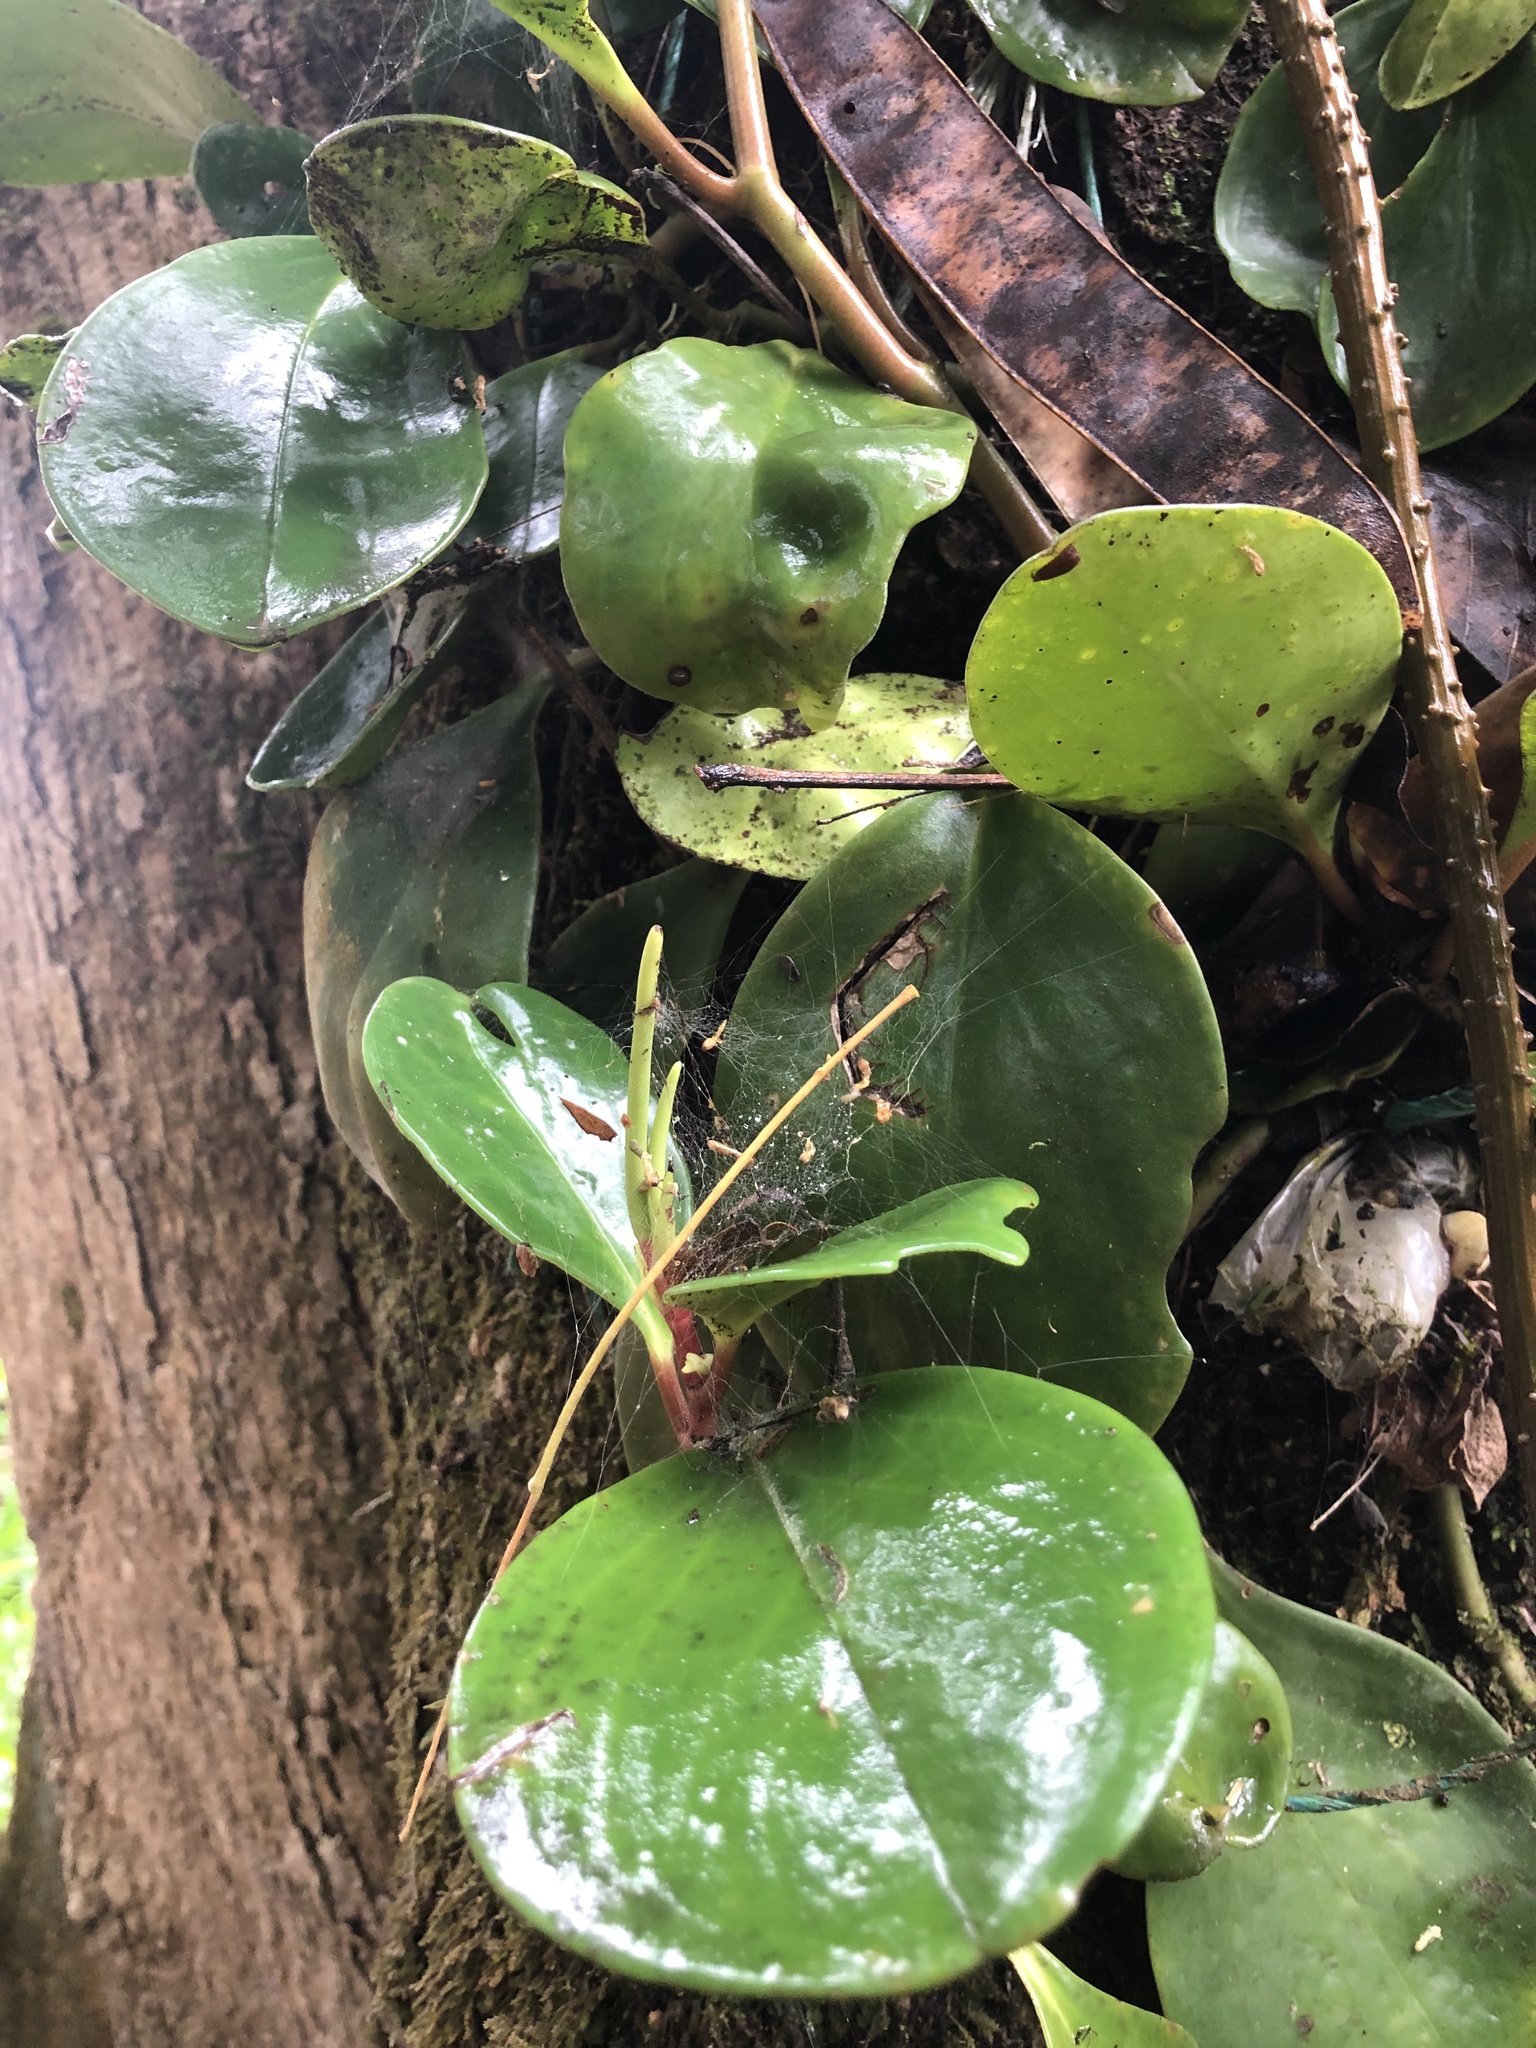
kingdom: Plantae
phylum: Tracheophyta
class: Magnoliopsida
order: Piperales
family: Piperaceae
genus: Peperomia
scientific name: Peperomia obtusifolia
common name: Baby rubberplant
